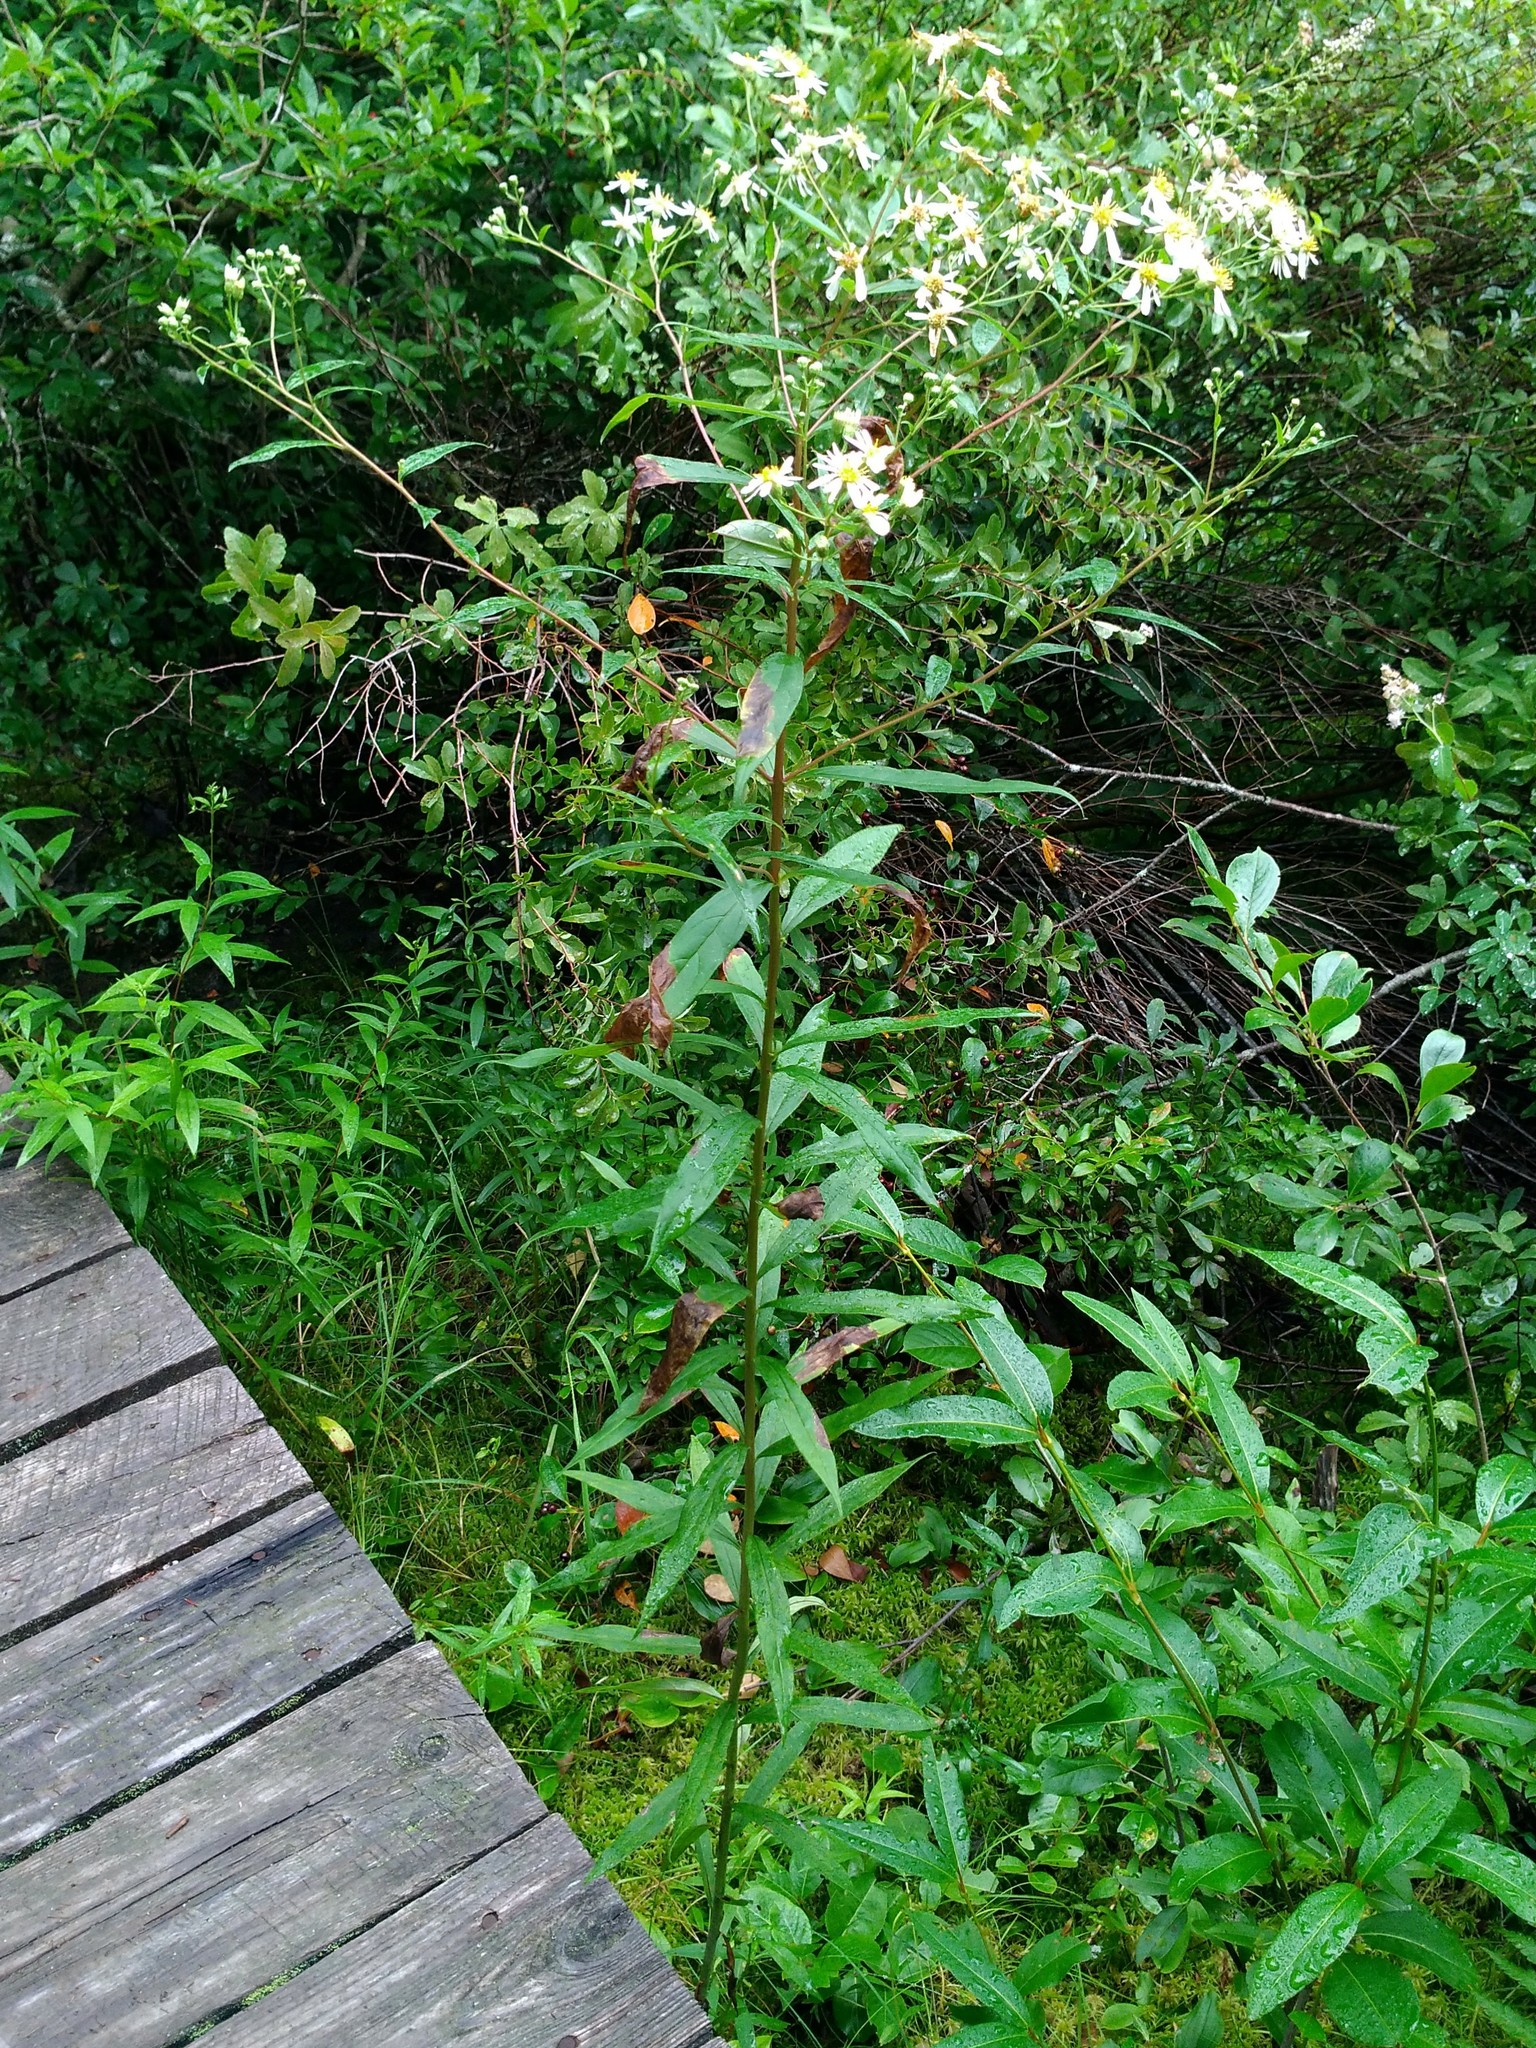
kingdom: Plantae
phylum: Tracheophyta
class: Magnoliopsida
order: Asterales
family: Asteraceae
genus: Doellingeria
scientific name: Doellingeria umbellata
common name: Flat-top white aster
